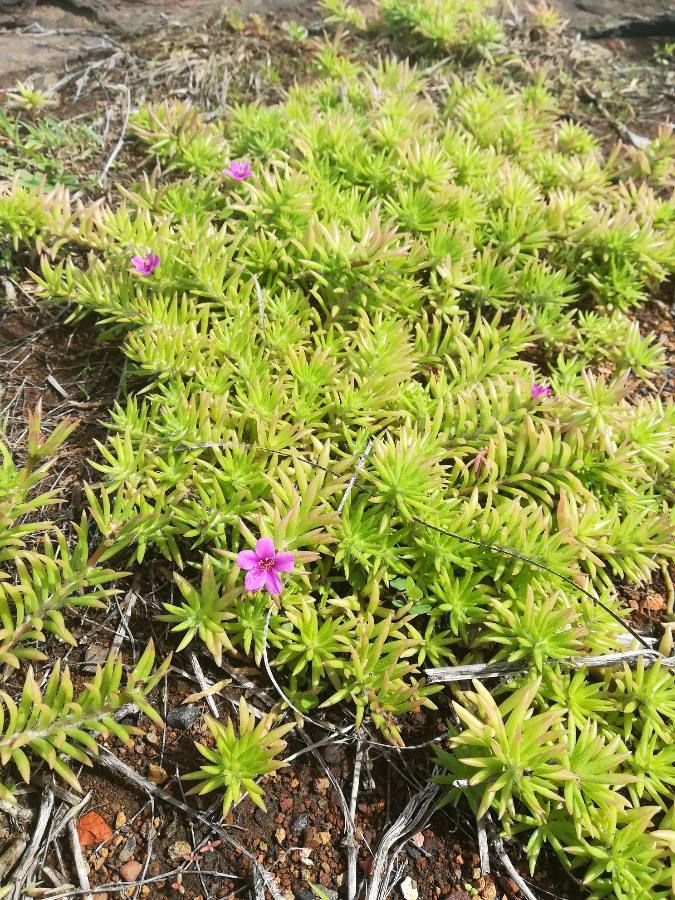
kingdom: Plantae
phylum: Tracheophyta
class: Magnoliopsida
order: Caryophyllales
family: Portulacaceae
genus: Portulaca
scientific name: Portulaca pilosa
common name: Kiss me quick
